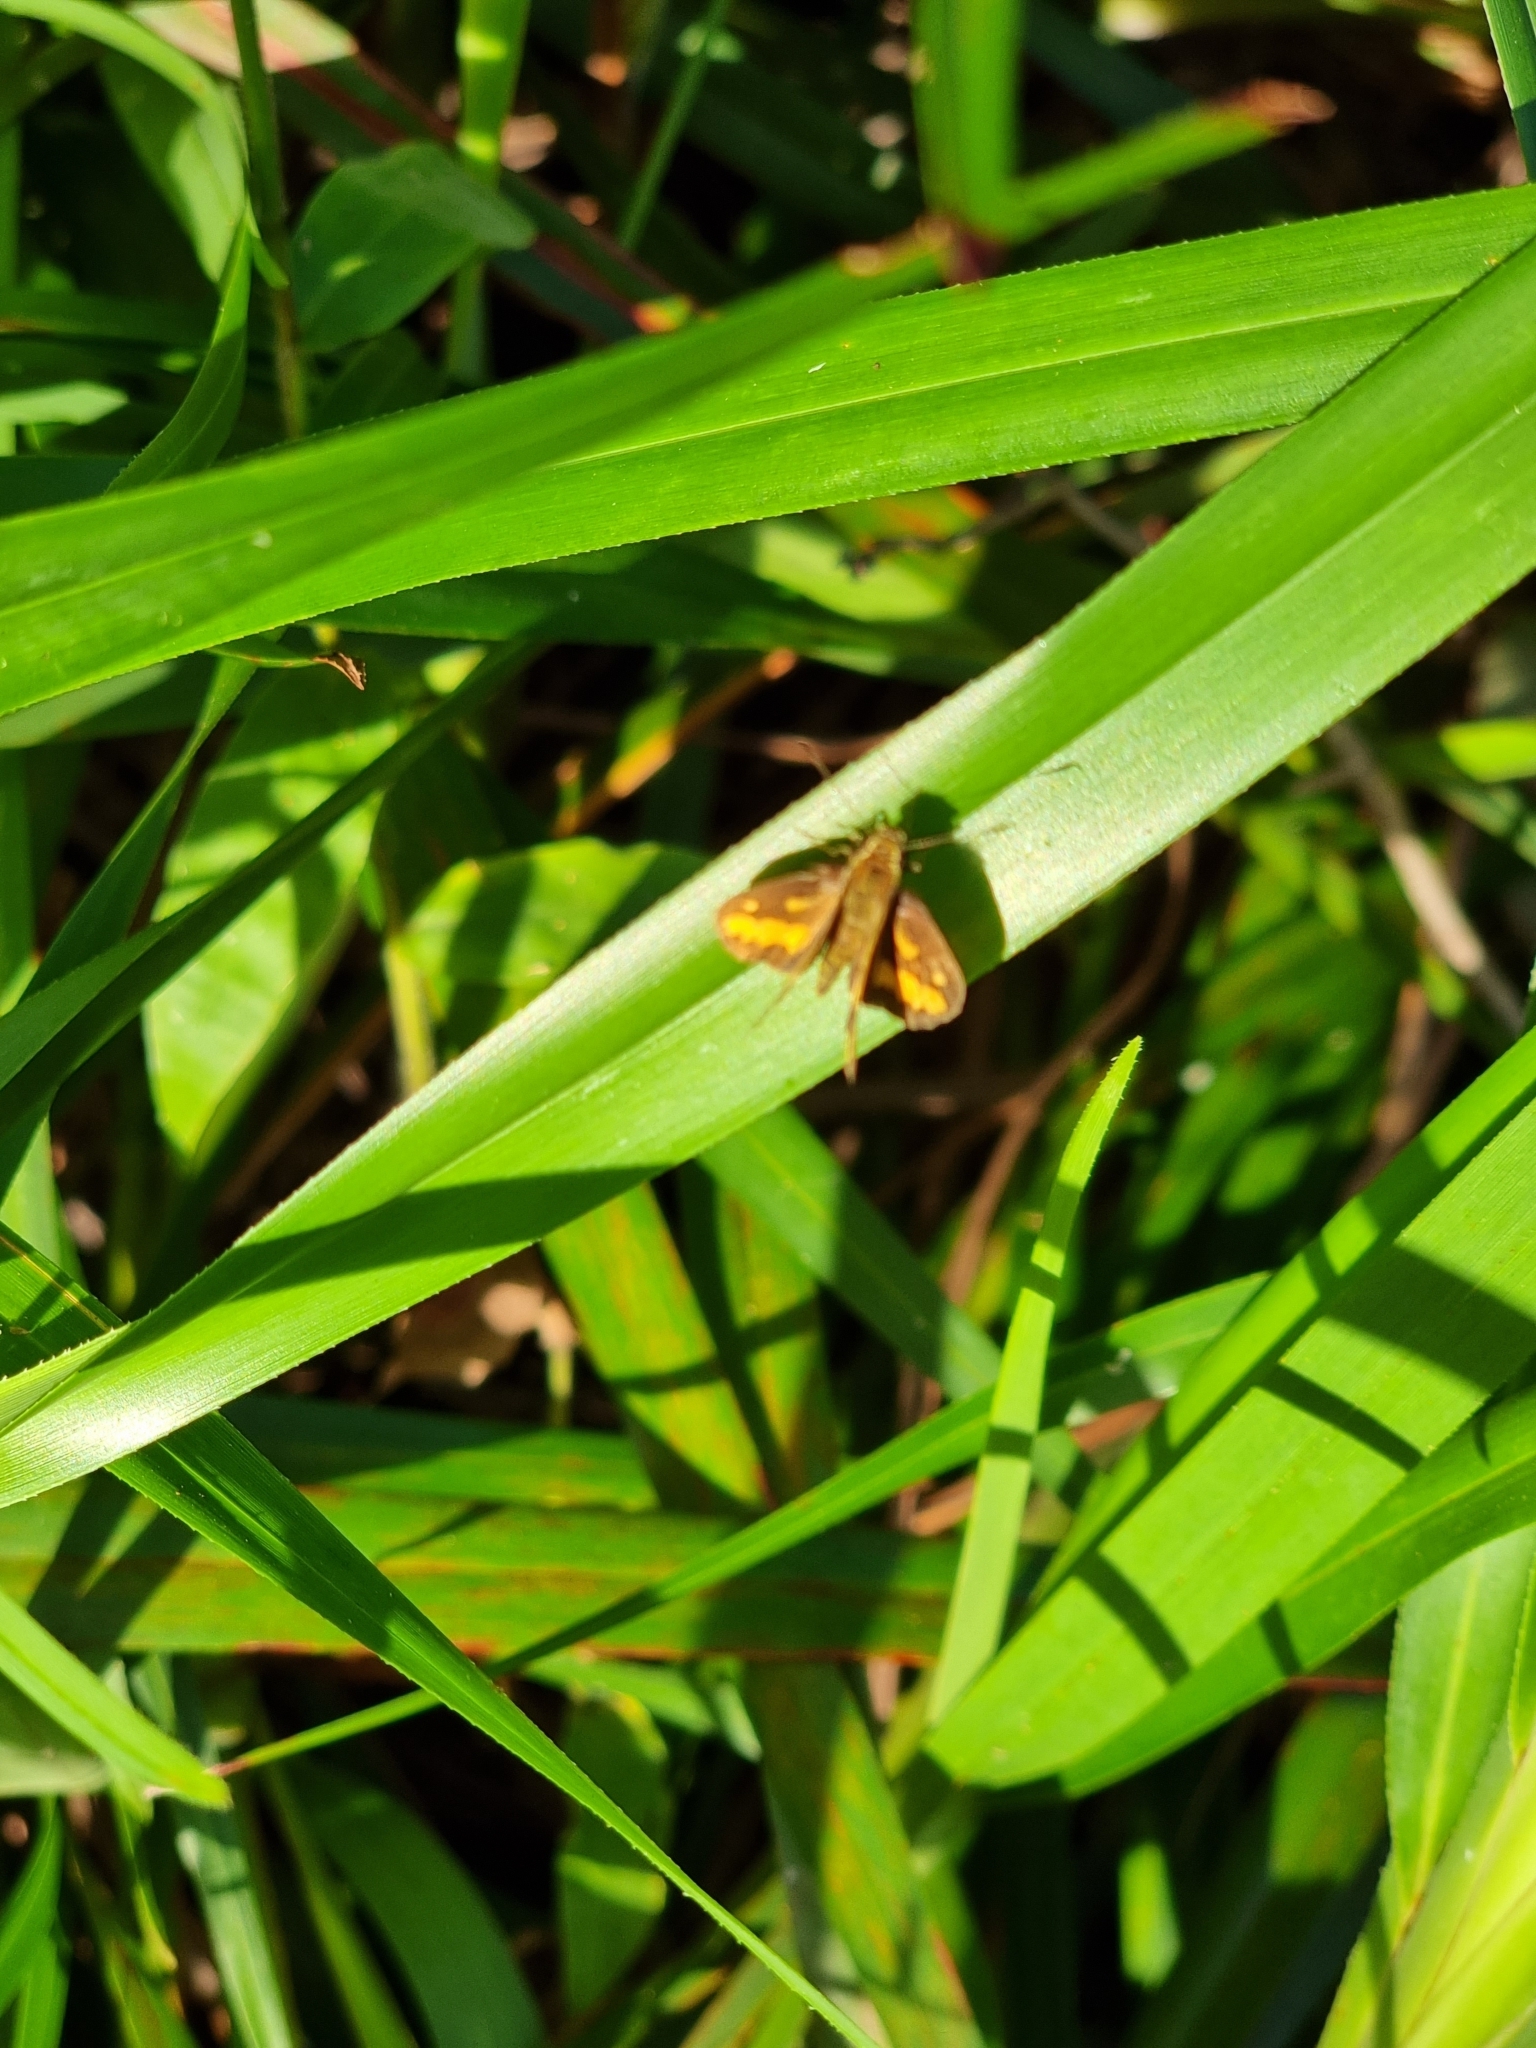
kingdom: Animalia
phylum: Arthropoda
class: Insecta
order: Lepidoptera
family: Hesperiidae
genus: Suniana
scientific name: Suniana sunias
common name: Wide-brand grass-dart
